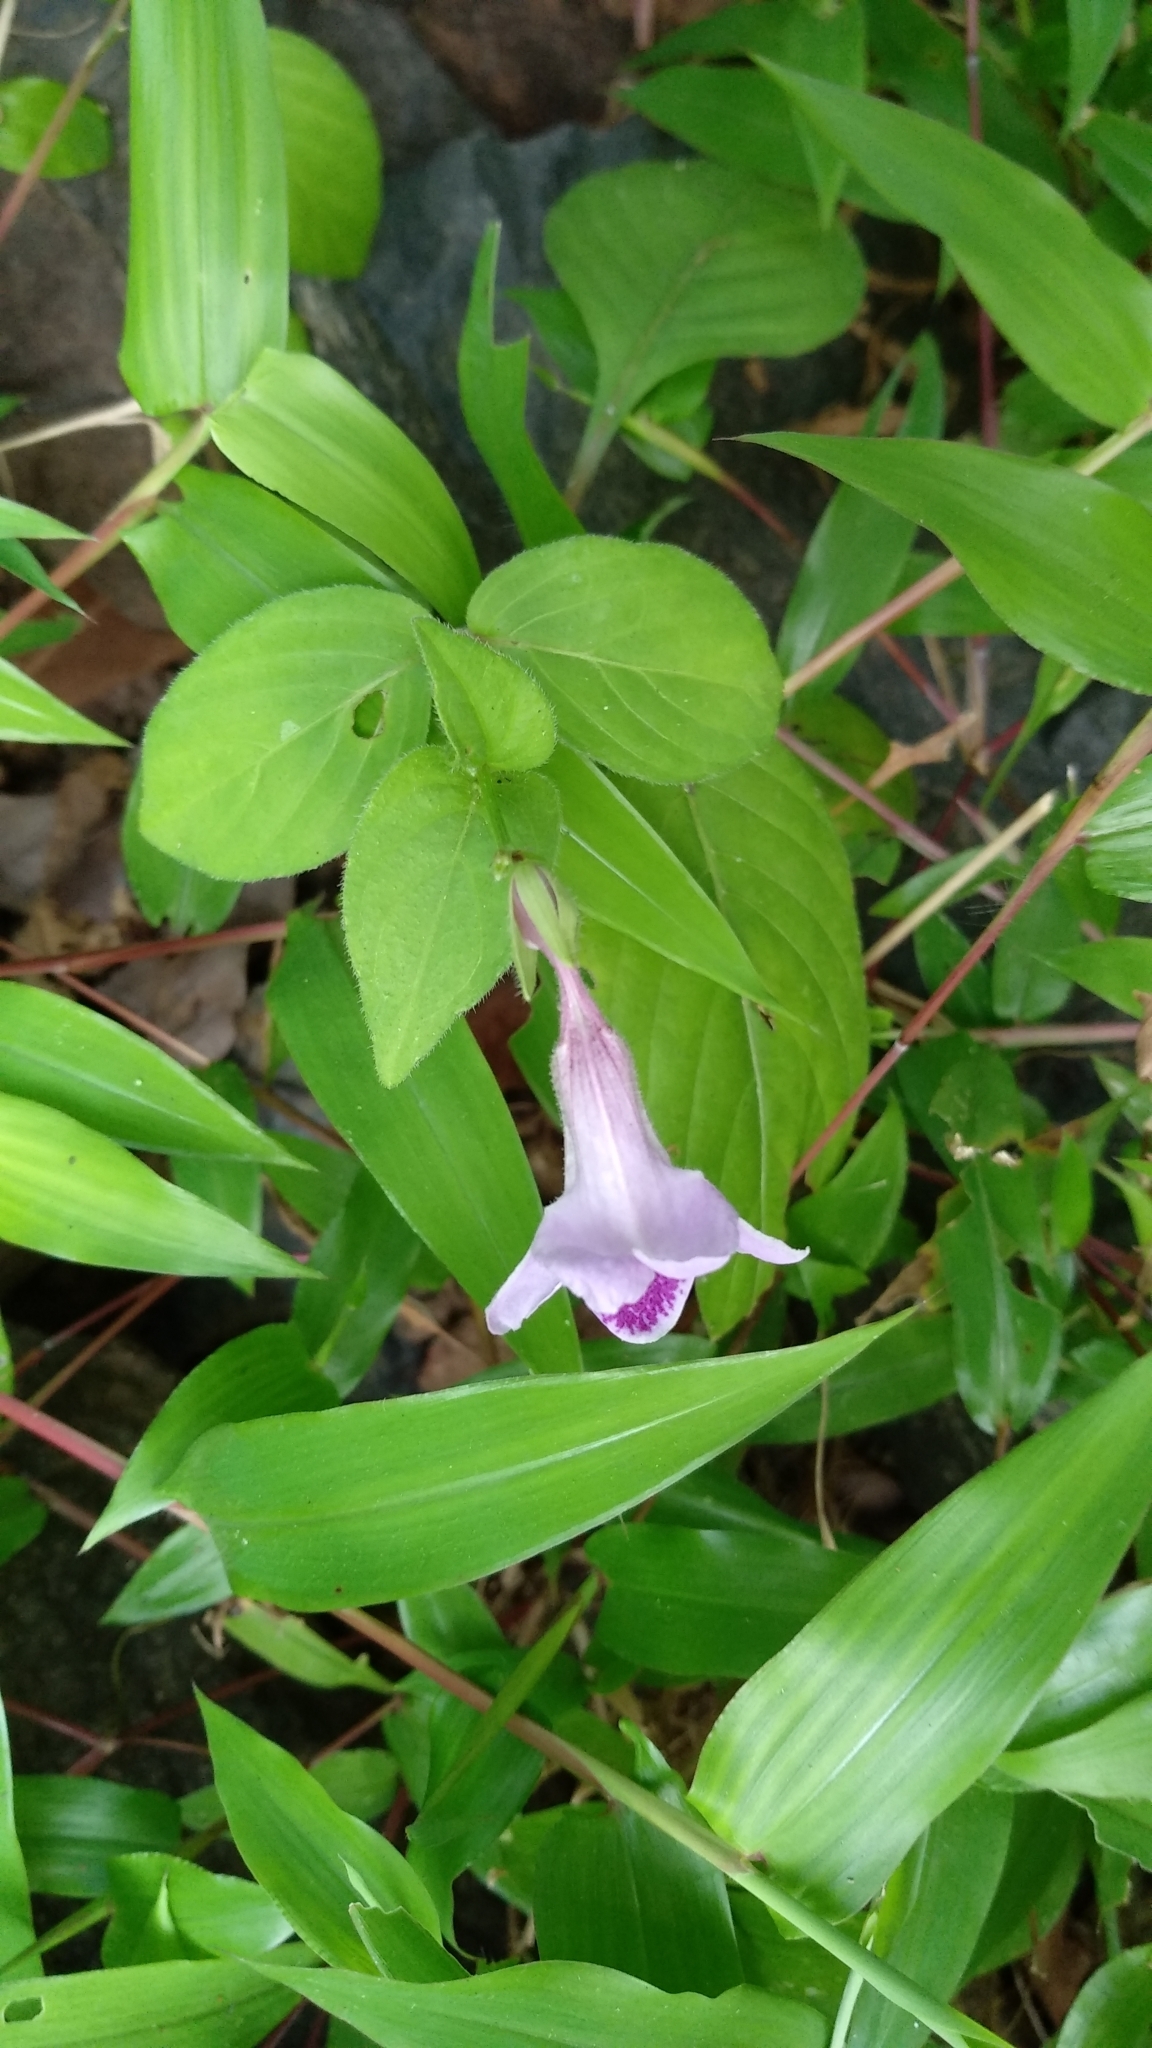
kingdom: Plantae
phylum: Tracheophyta
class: Magnoliopsida
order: Lamiales
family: Acanthaceae
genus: Asystasia
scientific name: Asystasia dalzelliana
